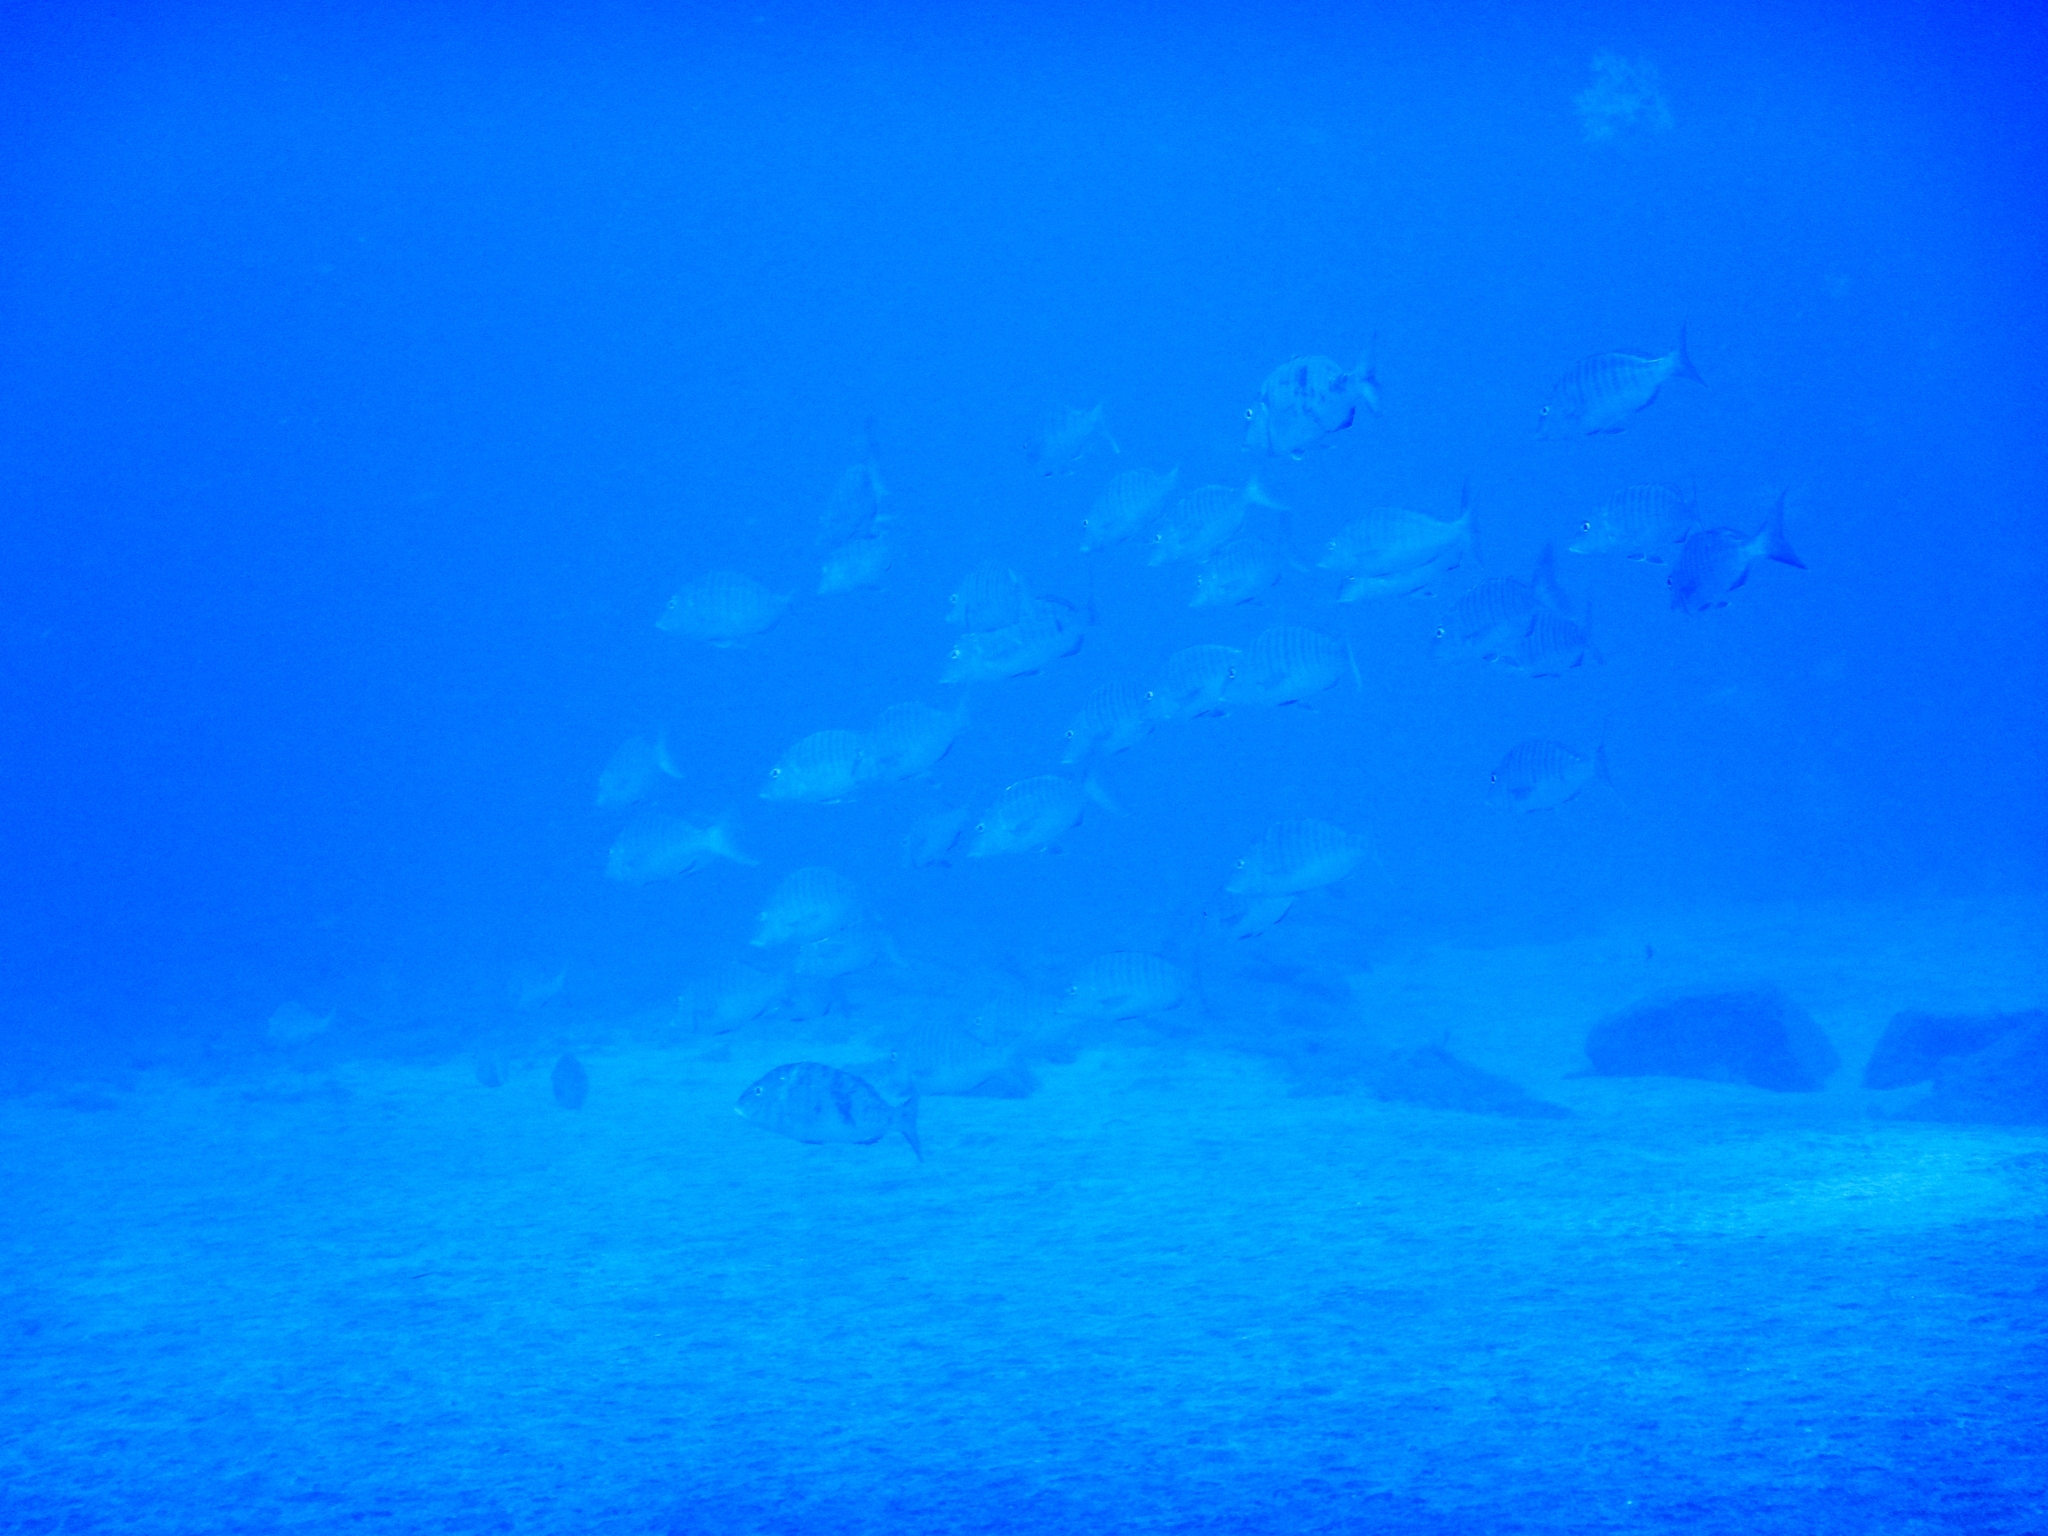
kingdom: Animalia
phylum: Chordata
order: Perciformes
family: Sparidae
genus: Lithognathus
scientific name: Lithognathus mormyrus
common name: Sand steenbras
